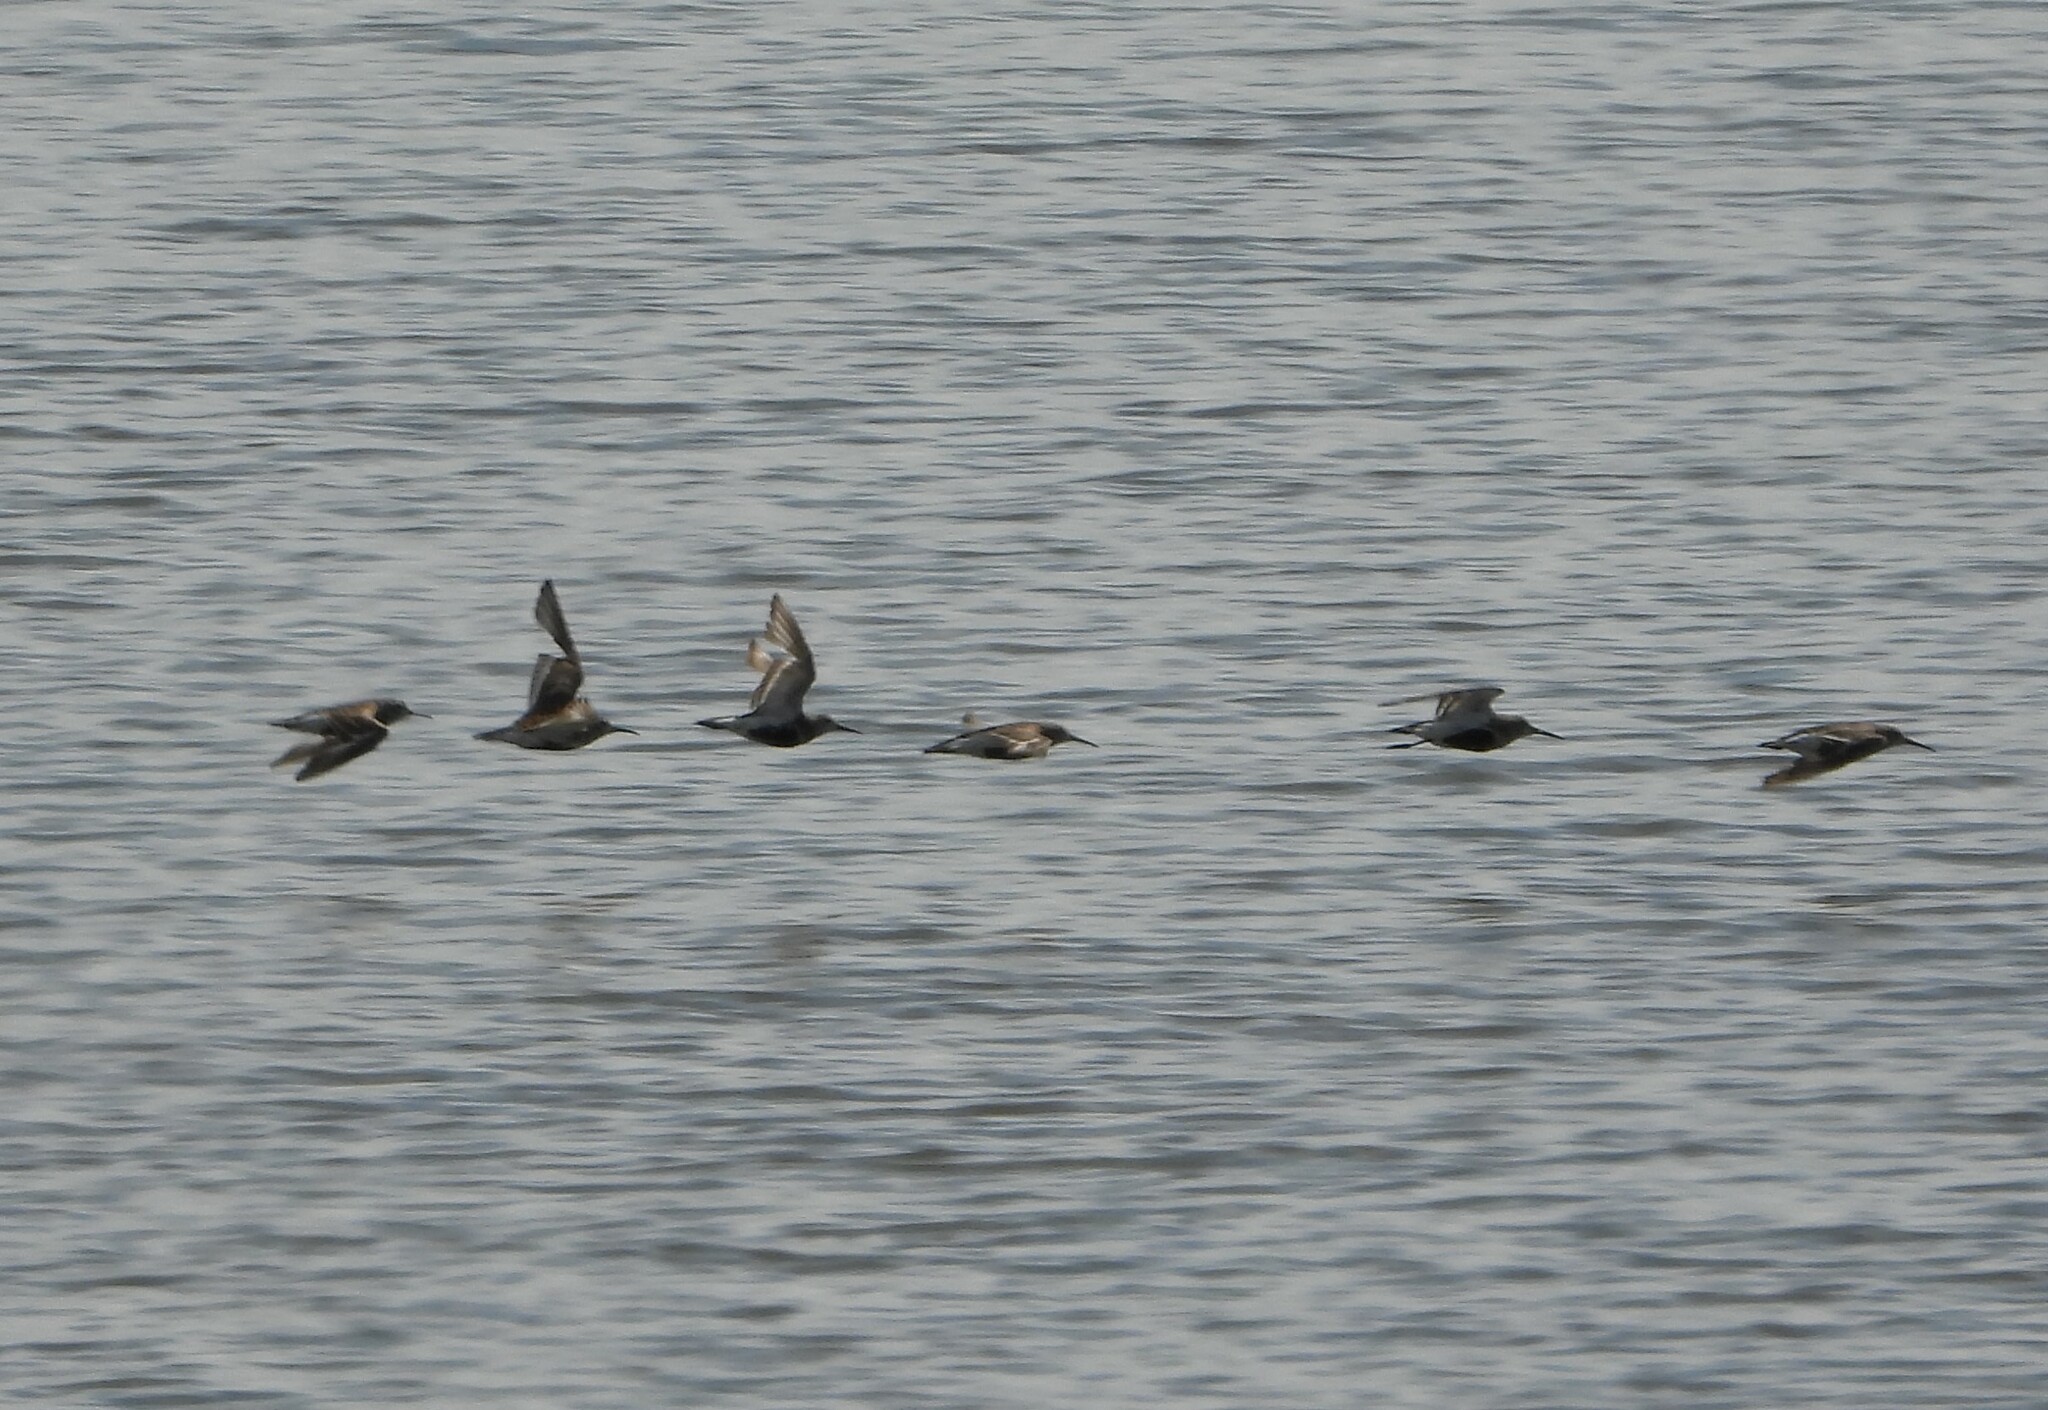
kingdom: Animalia
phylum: Chordata
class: Aves
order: Charadriiformes
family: Scolopacidae
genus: Calidris
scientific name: Calidris alpina
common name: Dunlin
